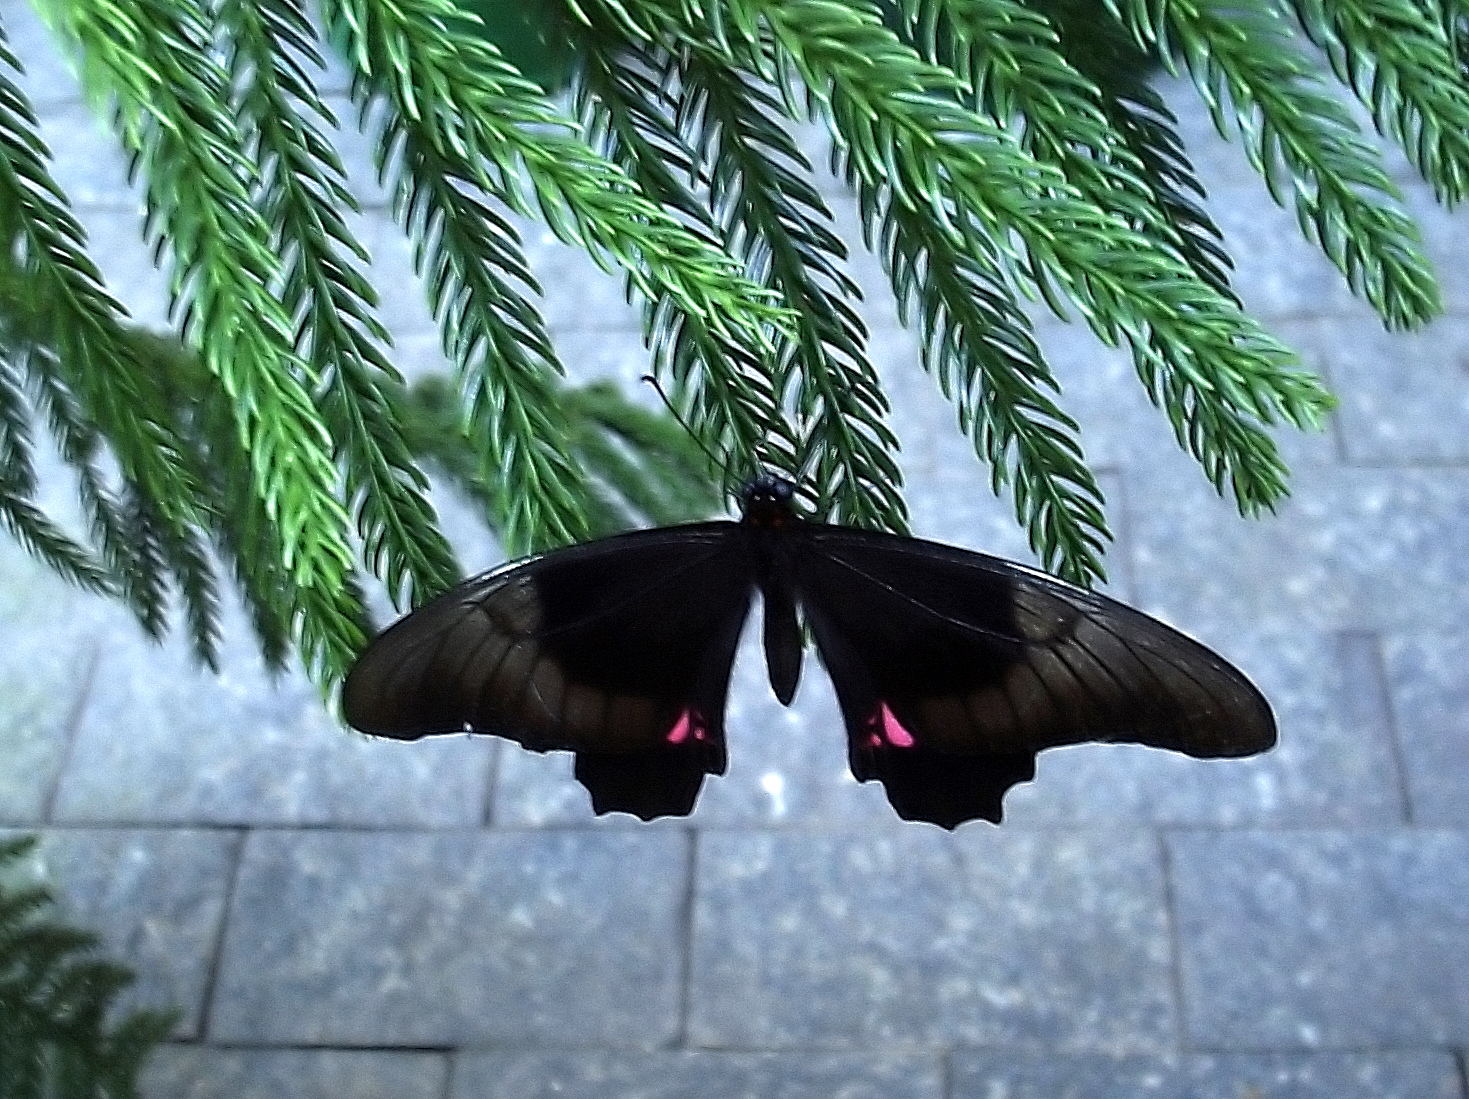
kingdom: Animalia
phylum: Arthropoda
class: Insecta
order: Lepidoptera
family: Papilionidae
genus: Papilio
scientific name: Papilio anchisiades
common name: Idaes swallowtail
